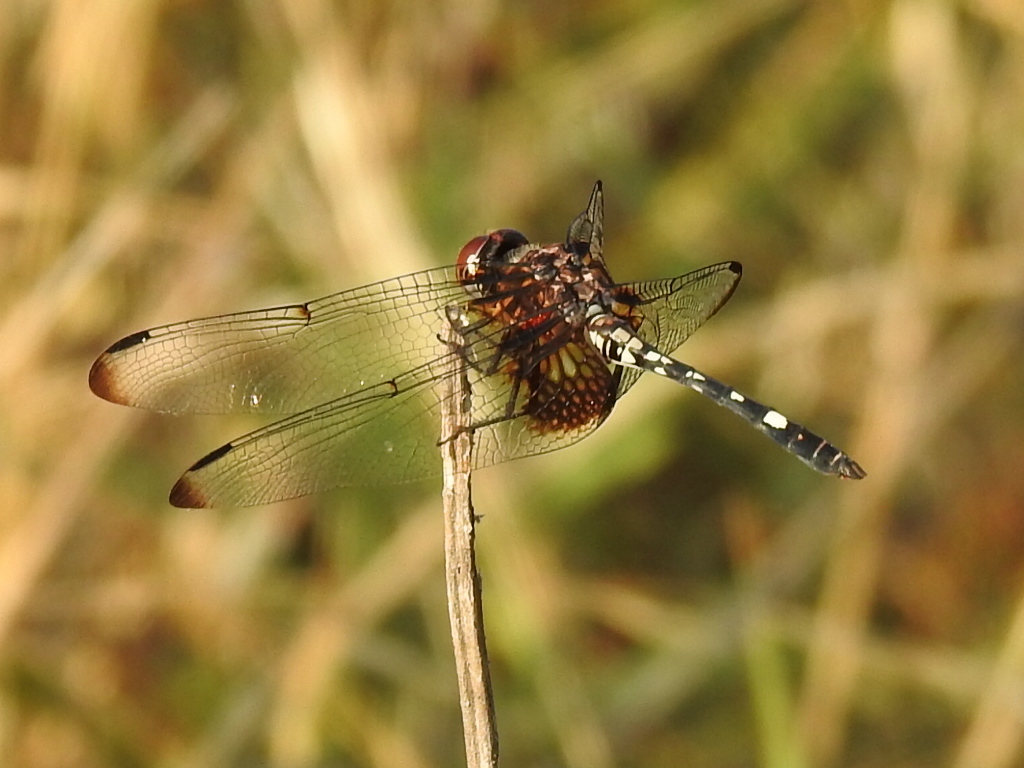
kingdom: Animalia
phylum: Arthropoda
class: Insecta
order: Odonata
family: Libellulidae
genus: Dythemis
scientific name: Dythemis fugax
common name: Checkered setwing
